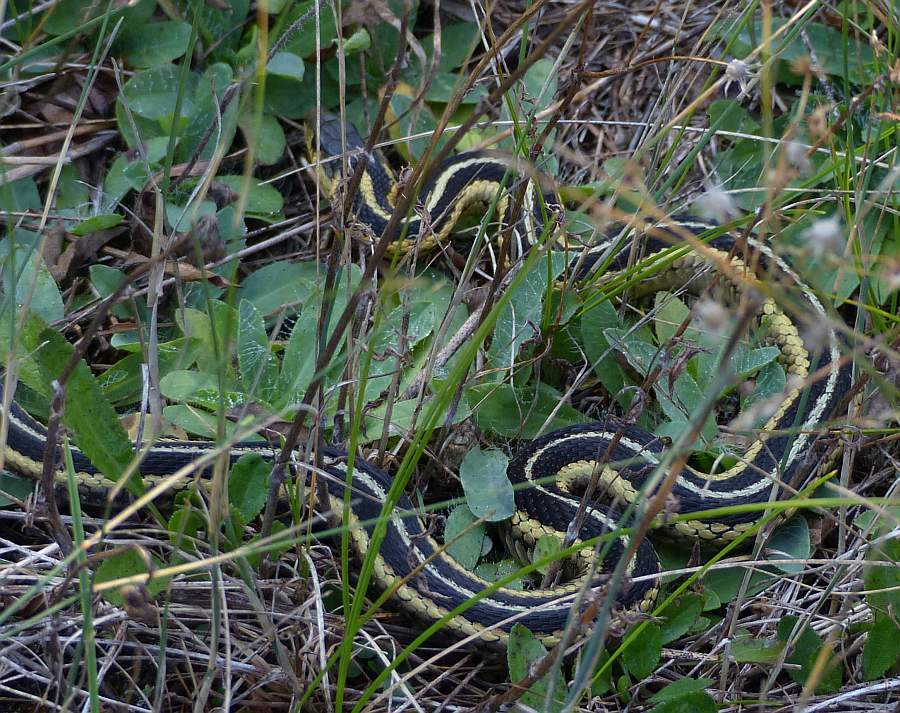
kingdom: Animalia
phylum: Chordata
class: Squamata
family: Colubridae
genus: Thamnophis
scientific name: Thamnophis sirtalis
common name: Common garter snake
